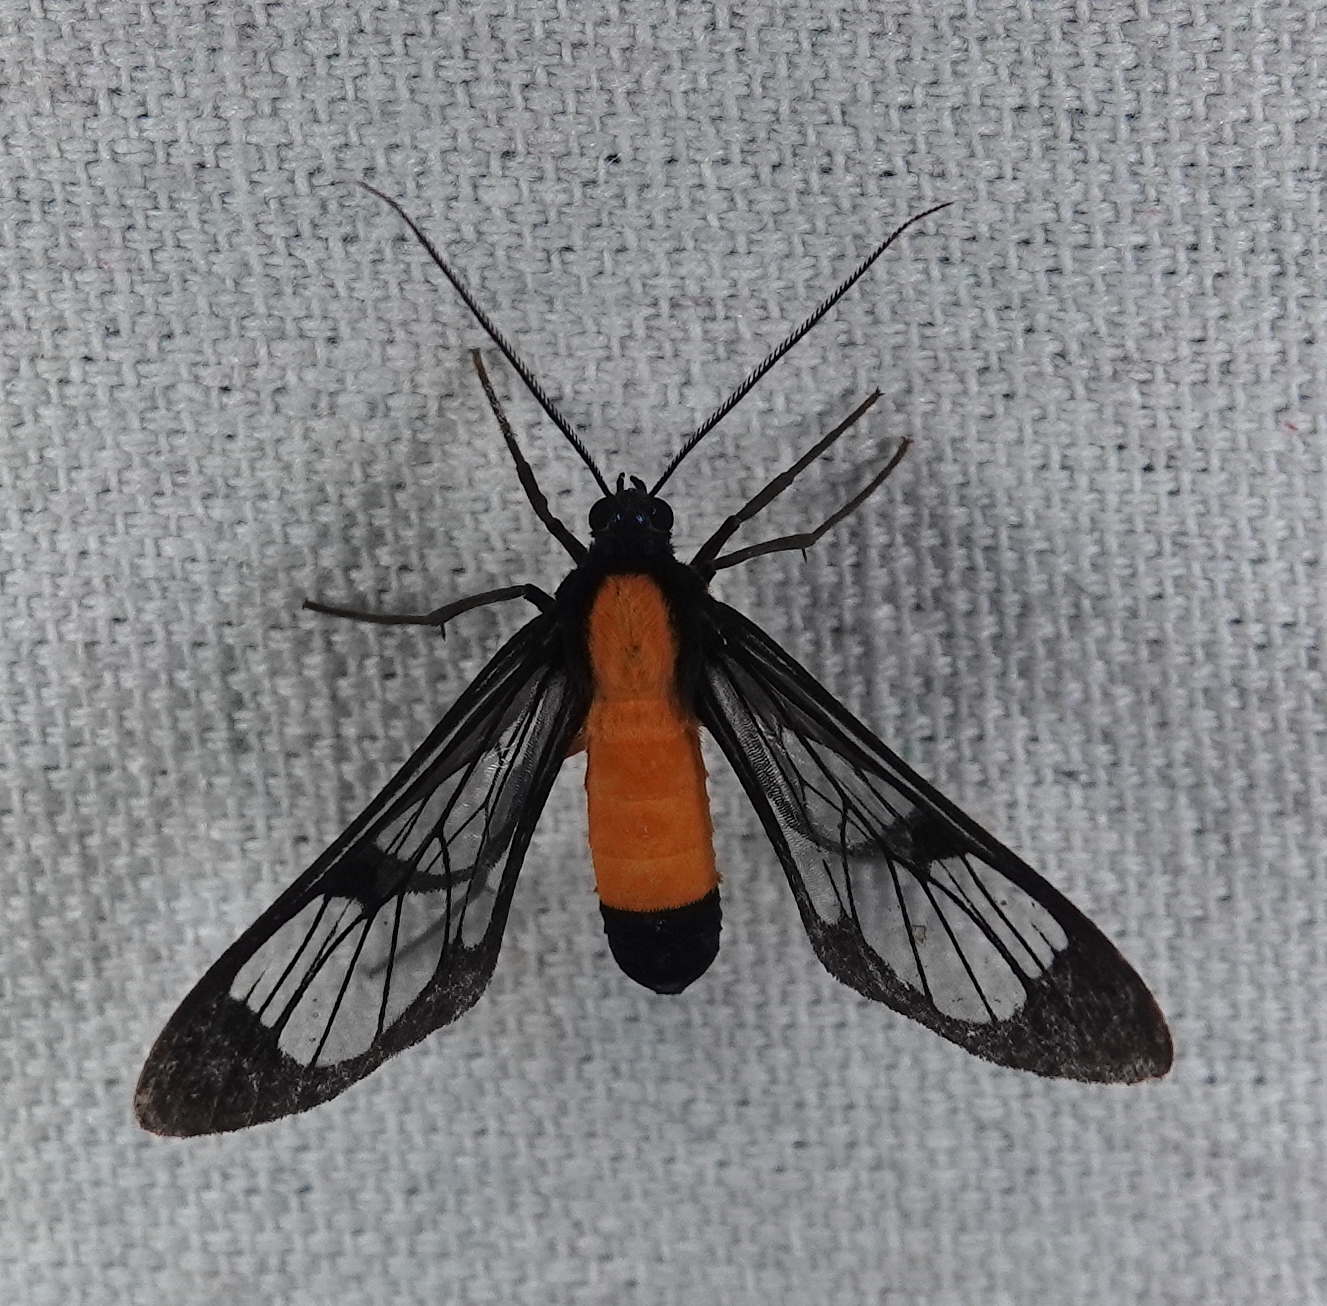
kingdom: Animalia
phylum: Arthropoda
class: Insecta
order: Lepidoptera
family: Erebidae
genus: Sarosa
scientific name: Sarosa annotata
